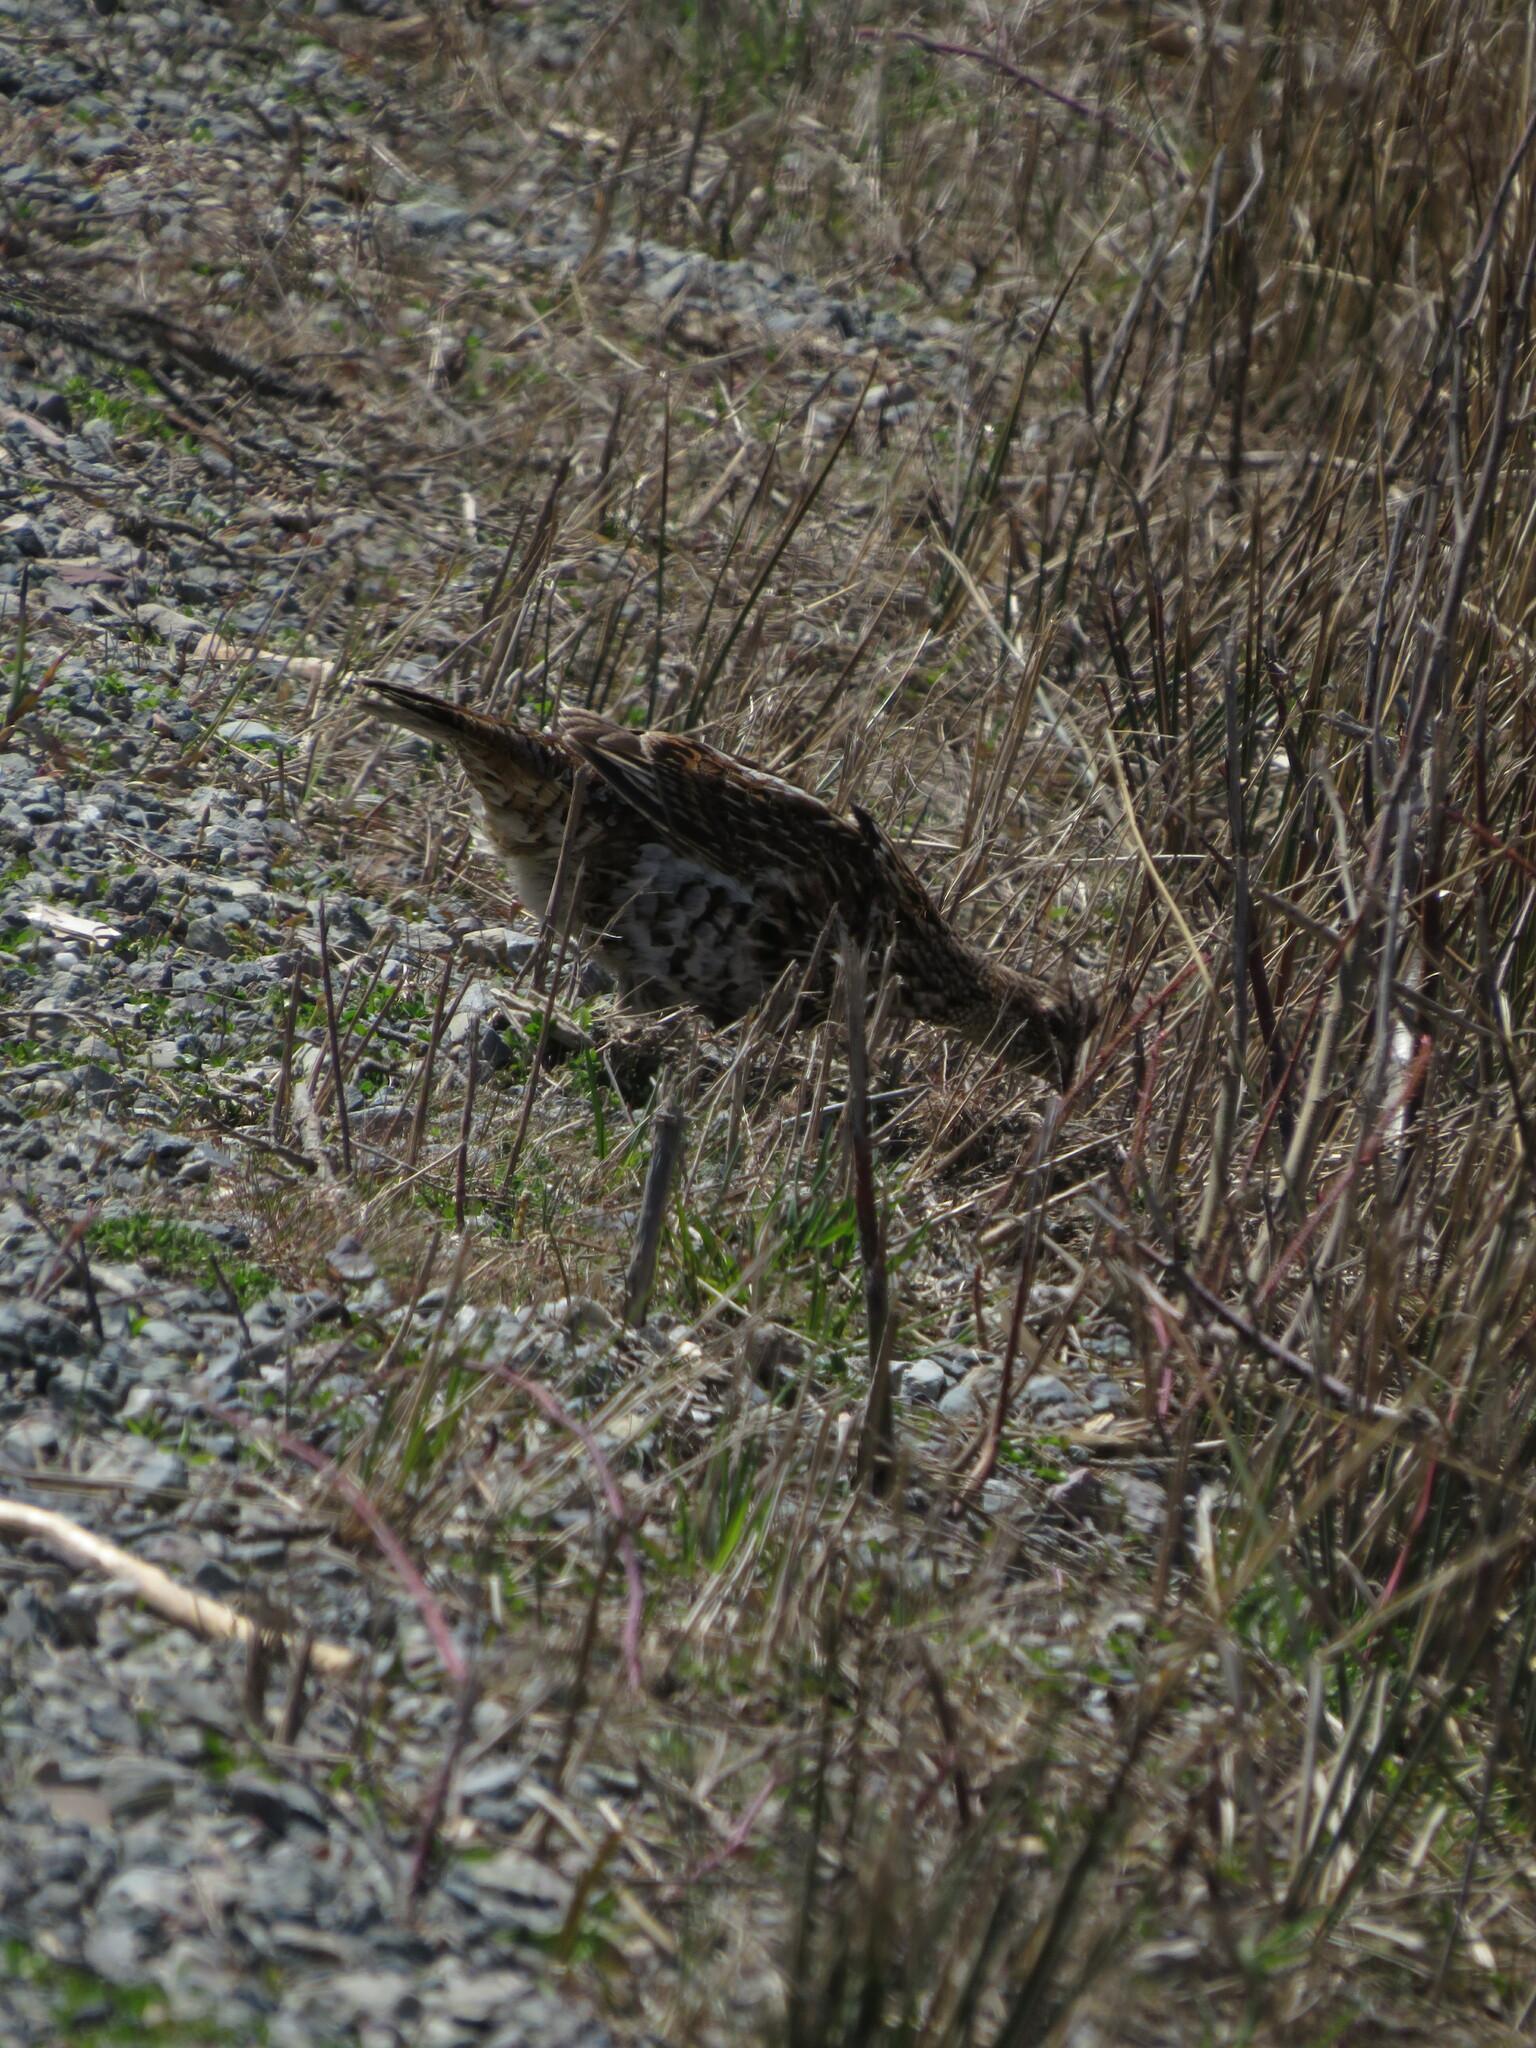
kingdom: Animalia
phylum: Chordata
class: Aves
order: Galliformes
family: Phasianidae
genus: Bonasa
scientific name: Bonasa umbellus
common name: Ruffed grouse
